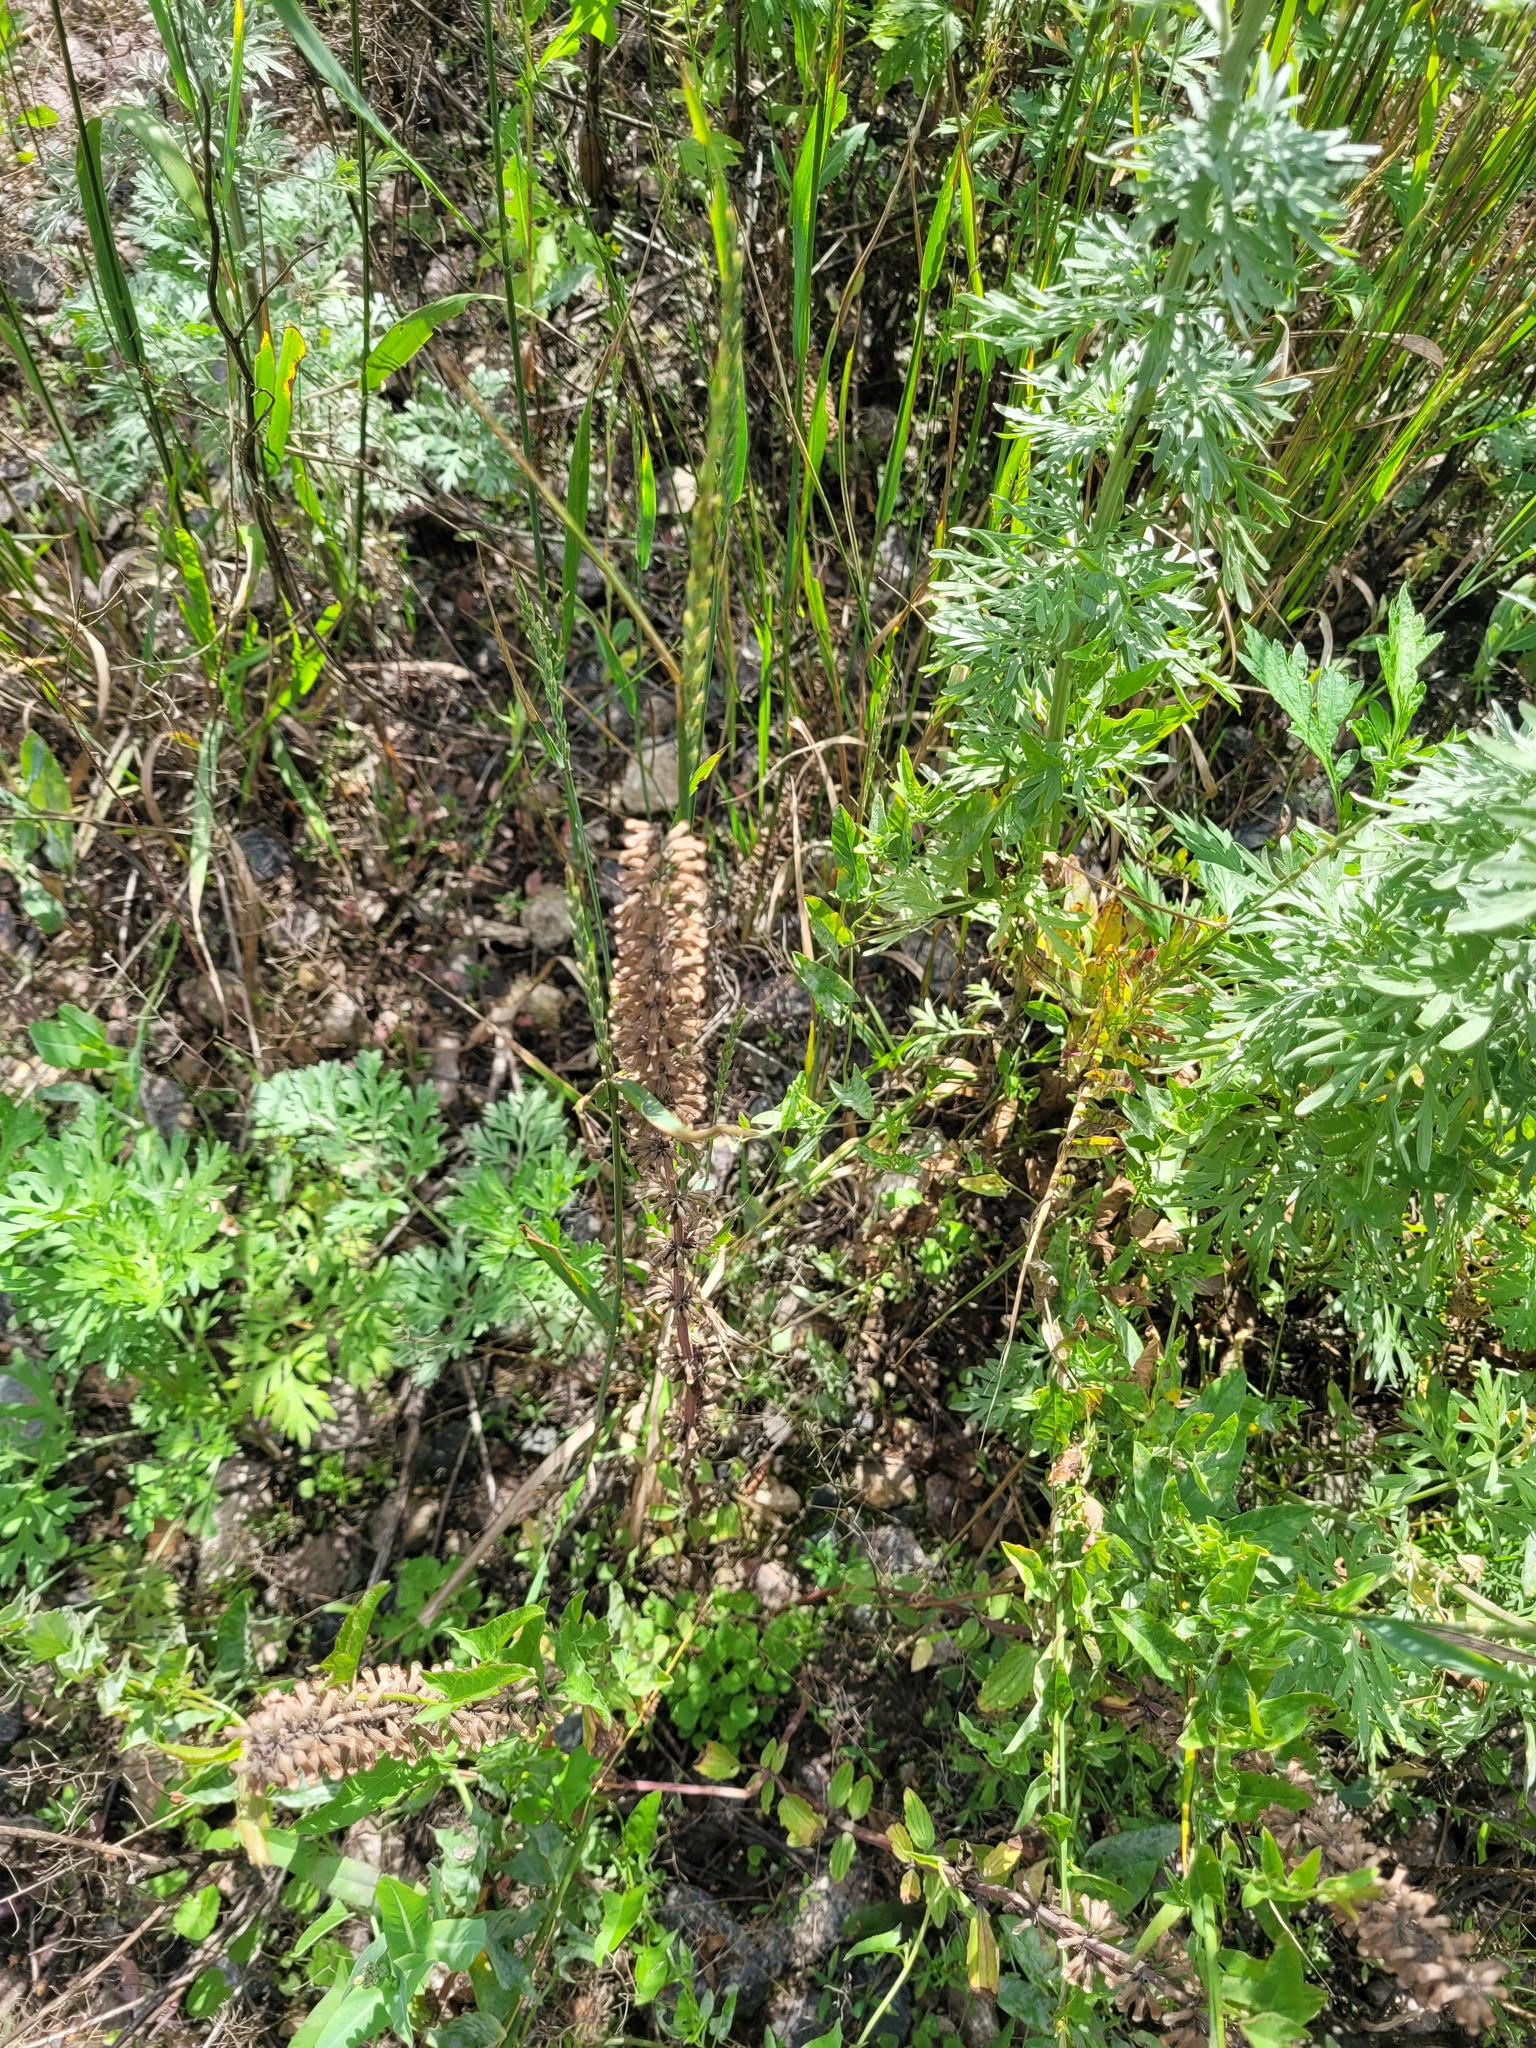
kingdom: Plantae
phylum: Tracheophyta
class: Magnoliopsida
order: Lamiales
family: Lamiaceae
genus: Dracocephalum
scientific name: Dracocephalum thymiflorum
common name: Thymeleaf dragonhead
